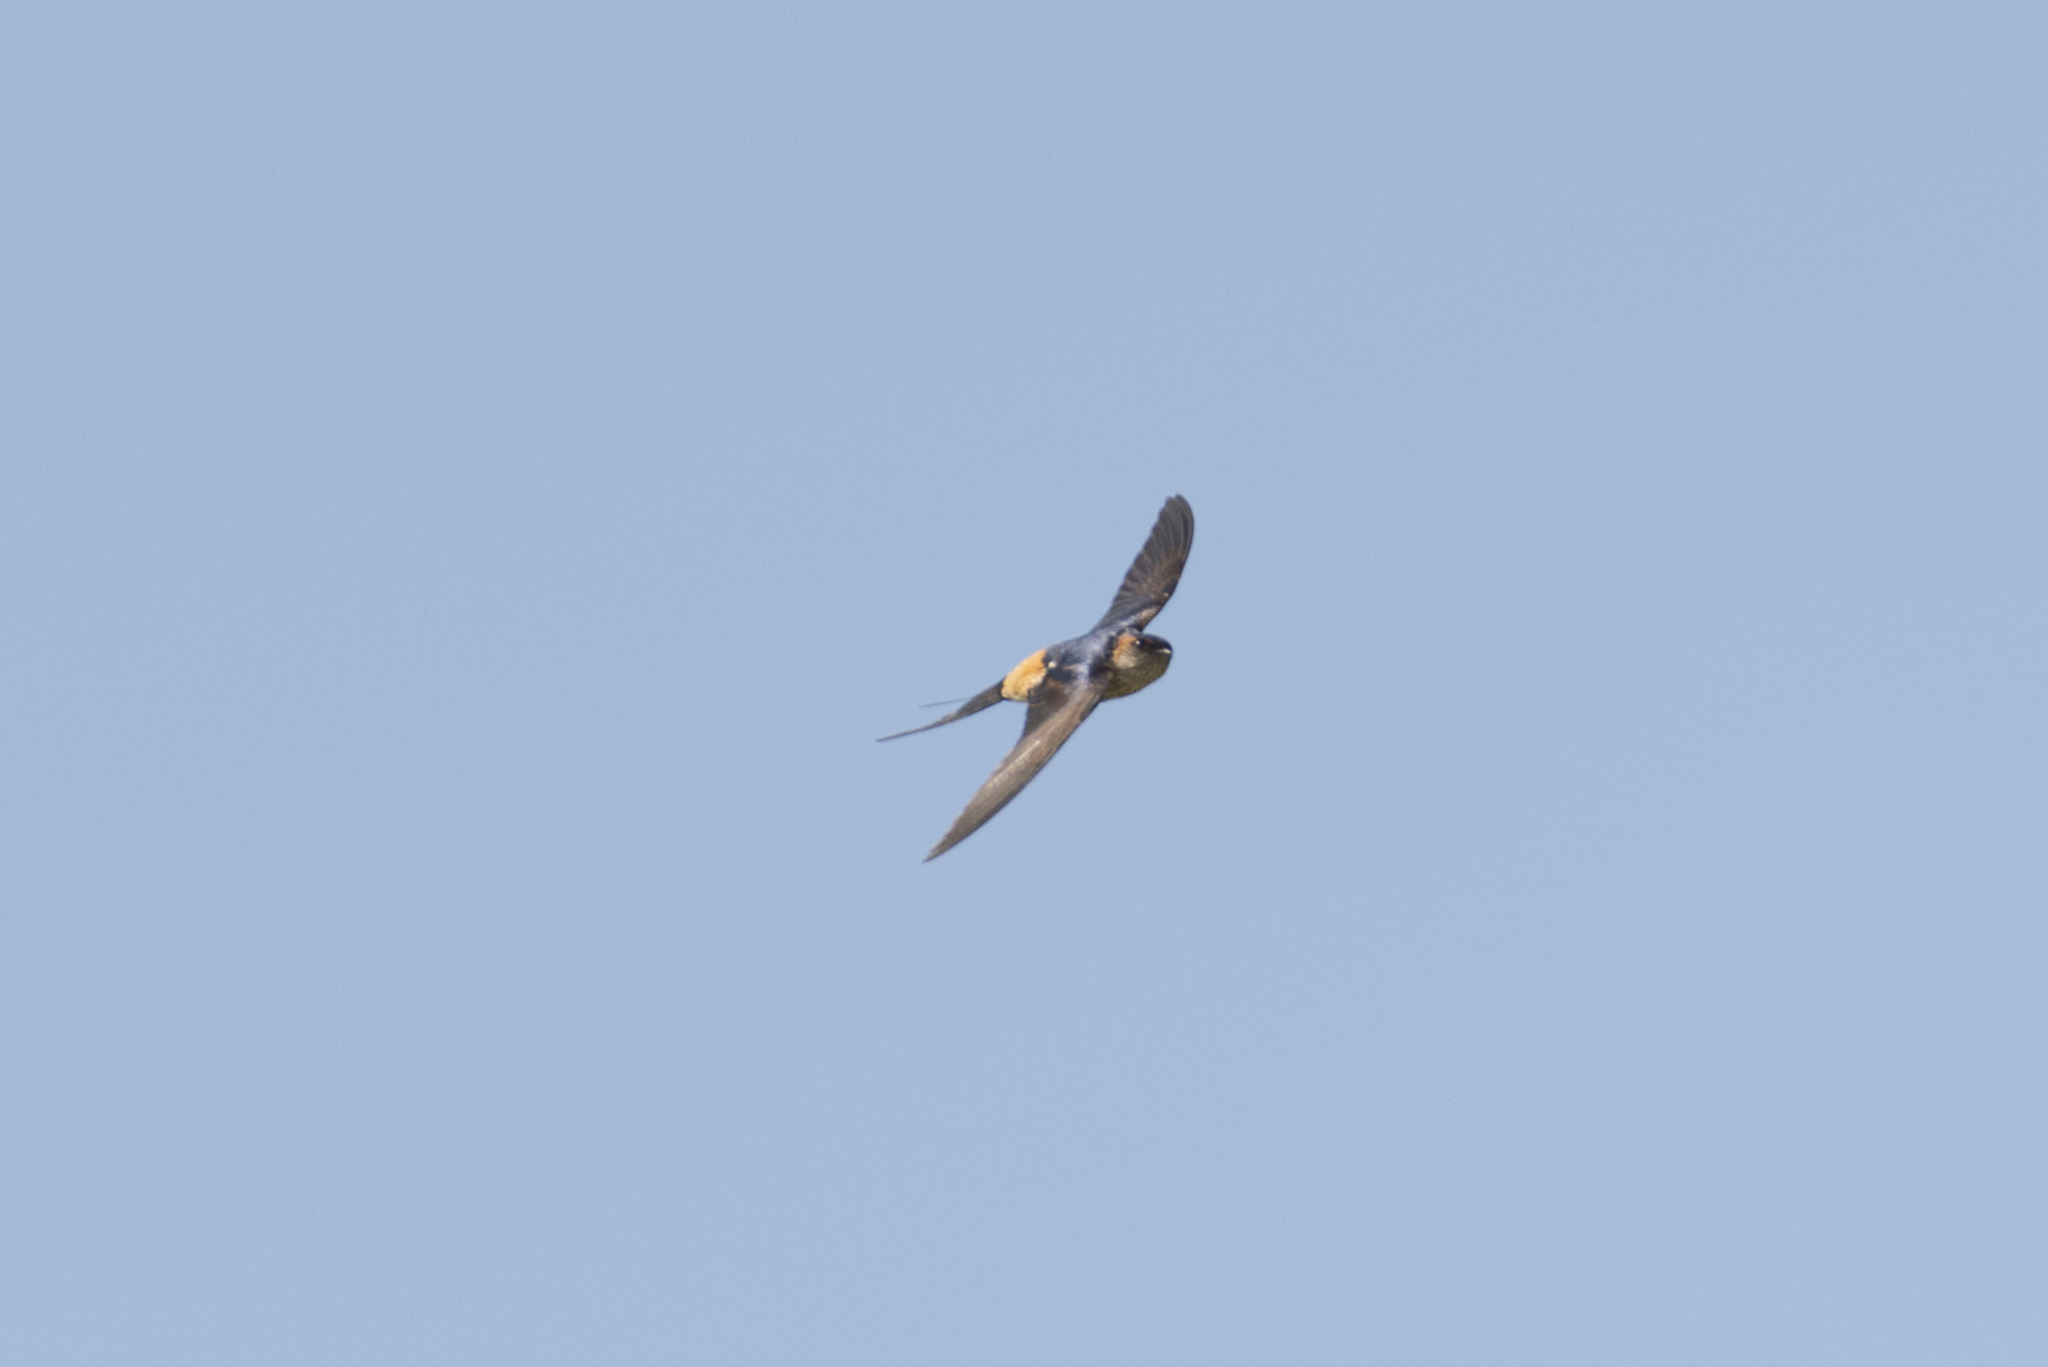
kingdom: Animalia
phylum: Chordata
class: Aves
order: Passeriformes
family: Hirundinidae
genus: Cecropis
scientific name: Cecropis daurica
